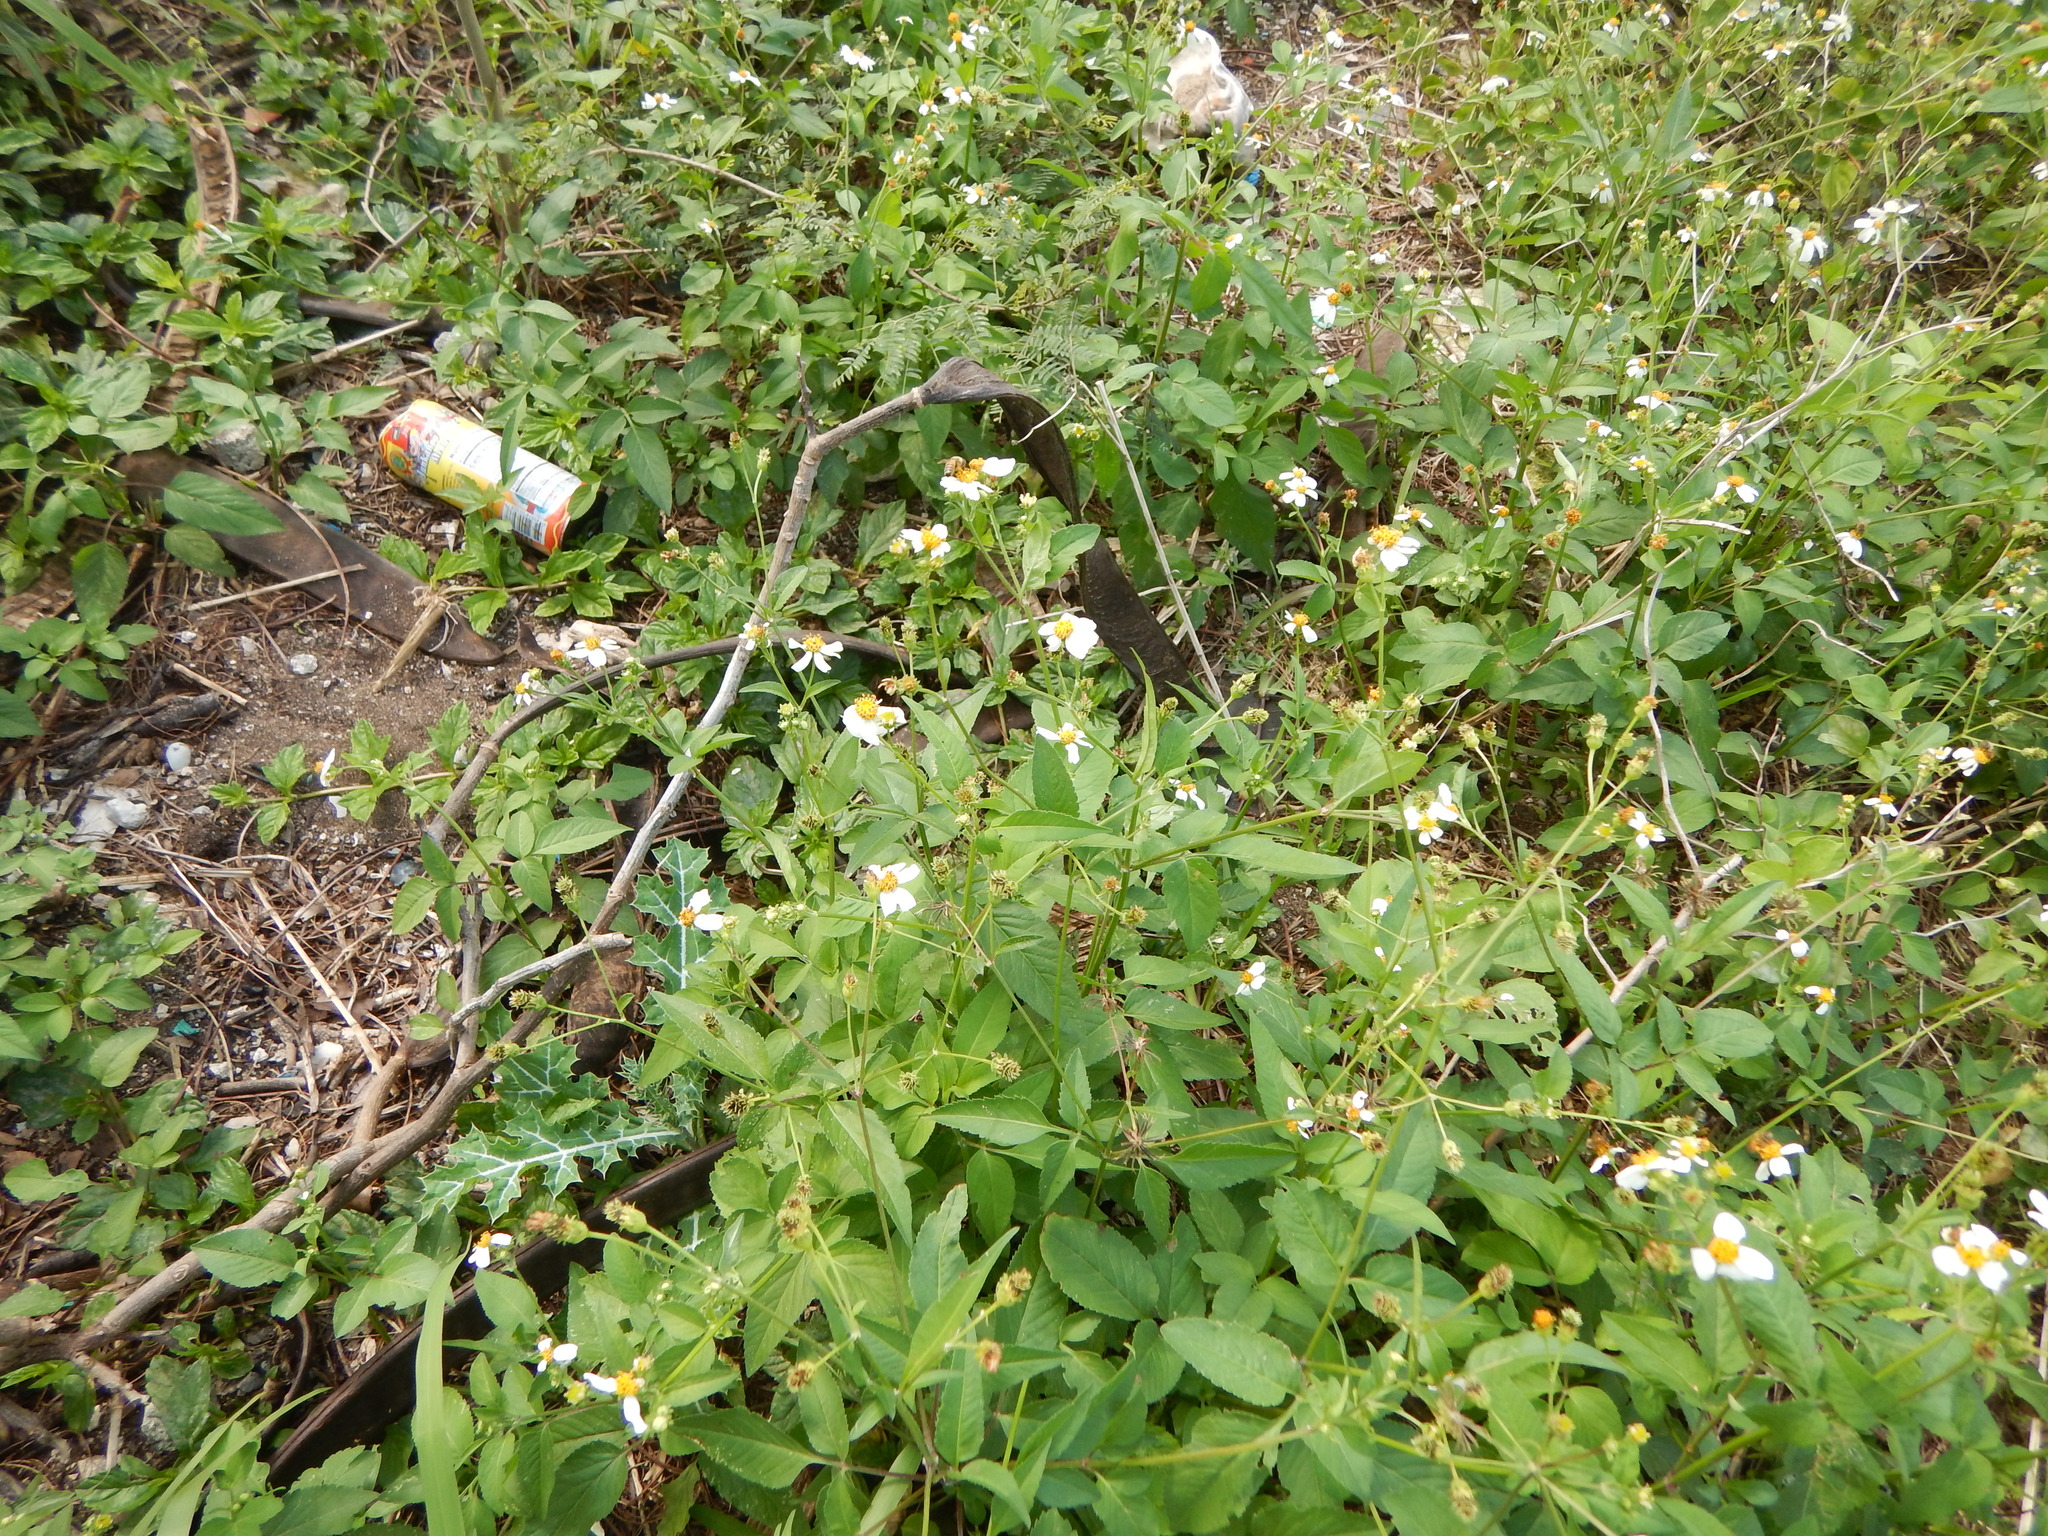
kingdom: Plantae
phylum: Tracheophyta
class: Magnoliopsida
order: Asterales
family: Asteraceae
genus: Bidens
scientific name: Bidens pilosa
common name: Black-jack
